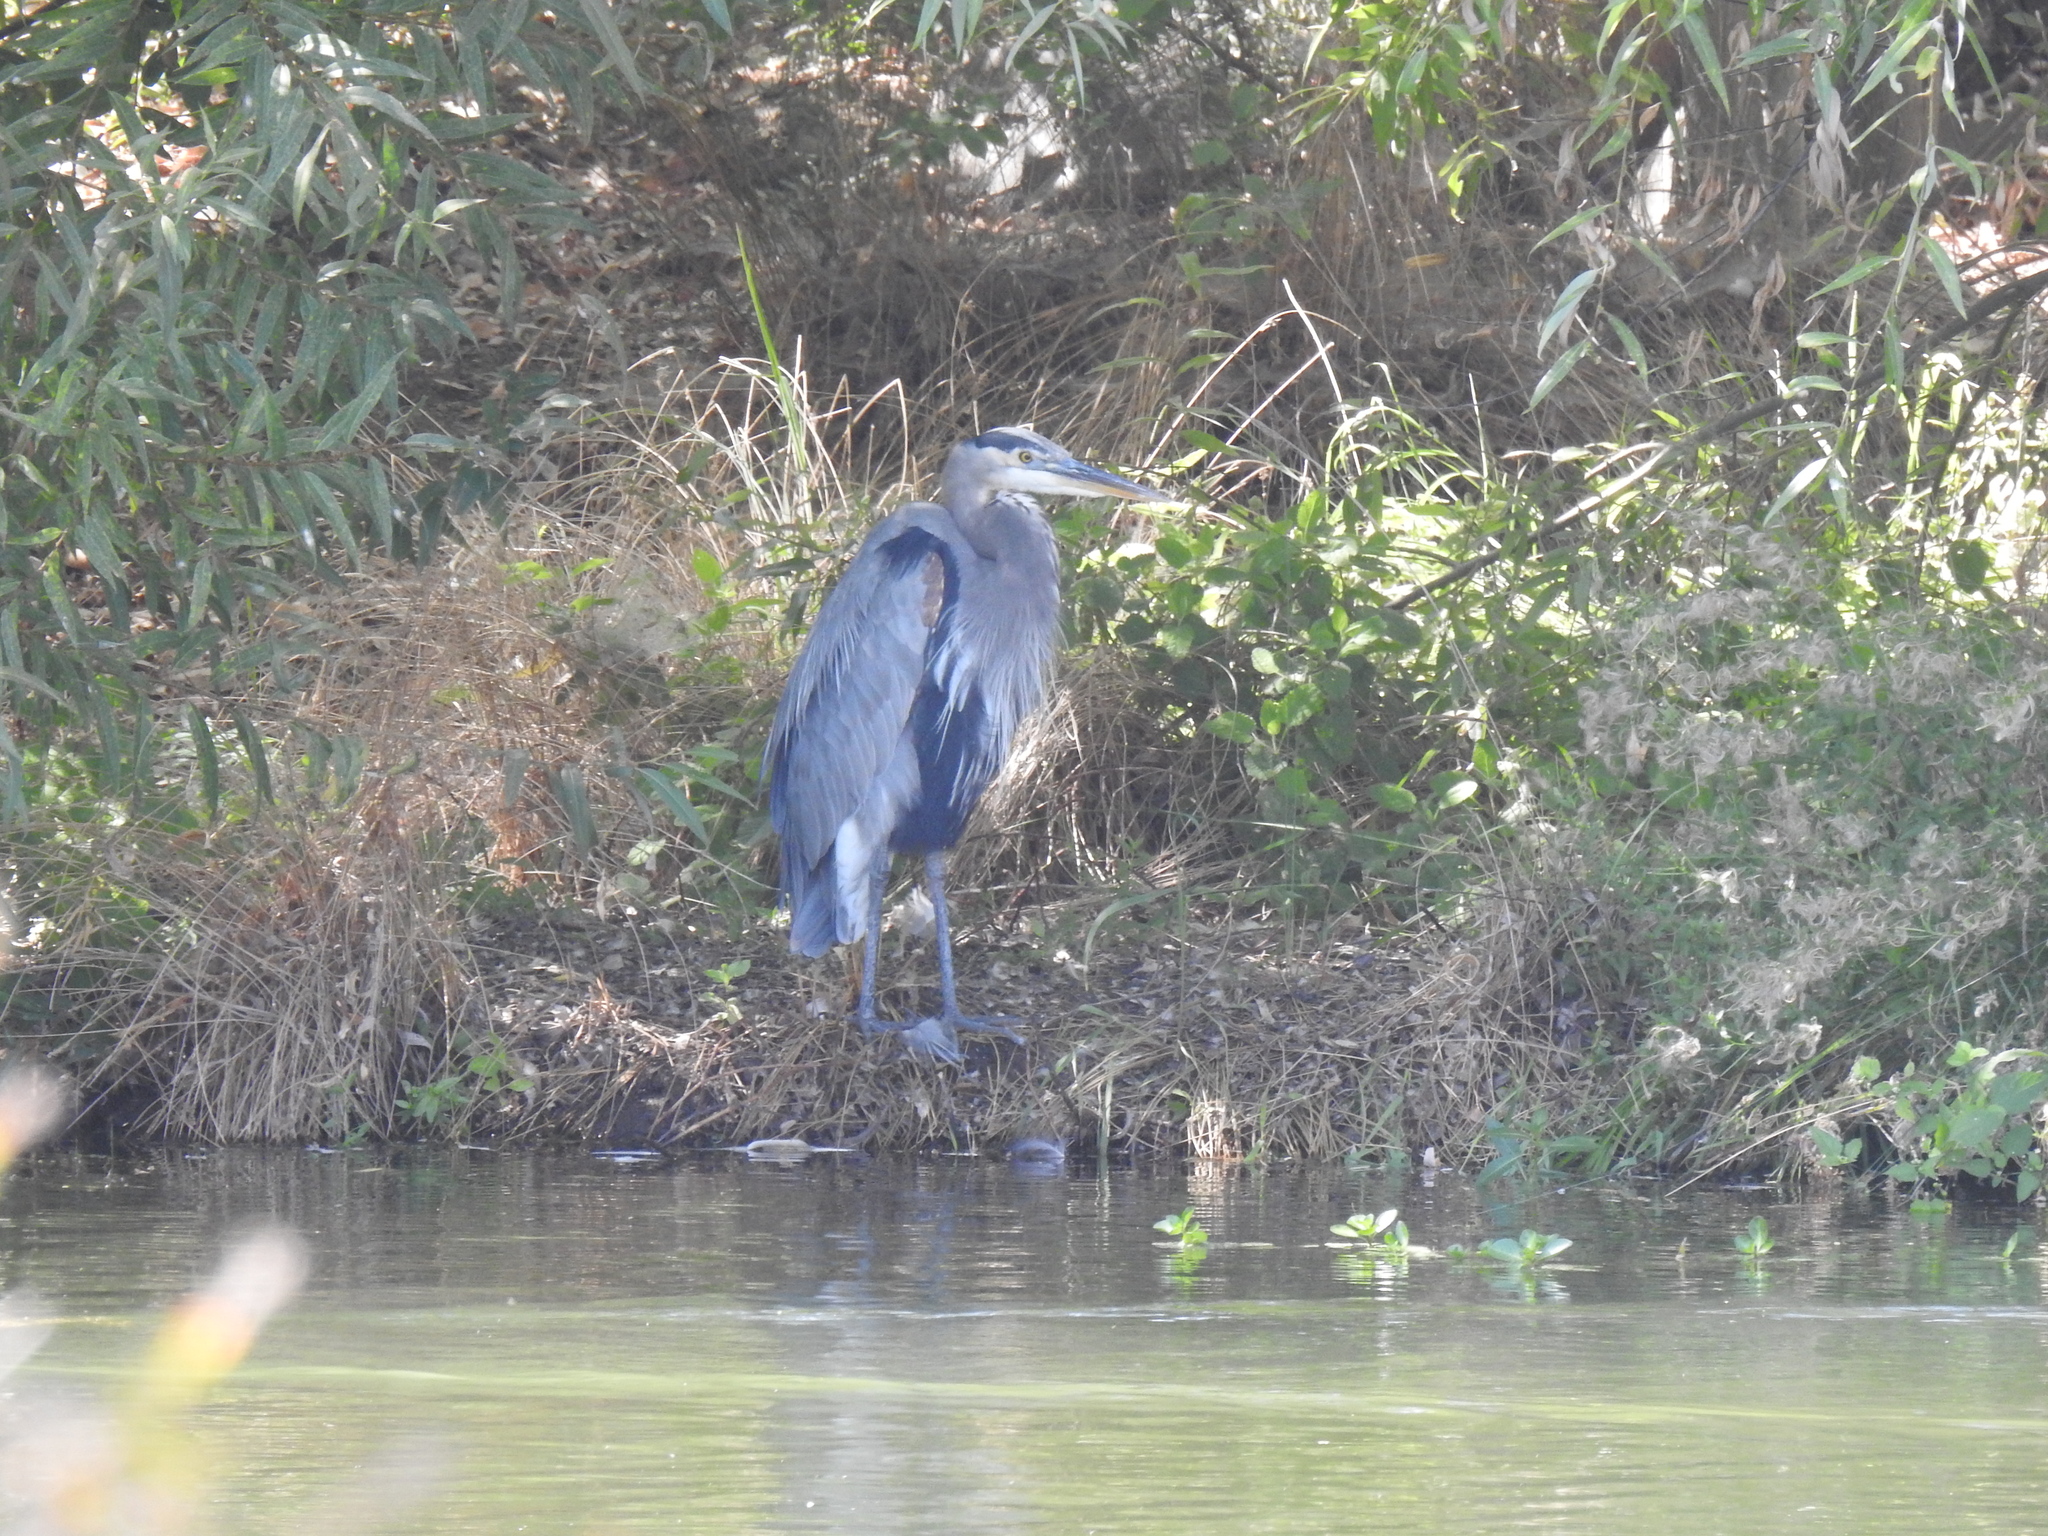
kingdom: Animalia
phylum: Chordata
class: Aves
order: Pelecaniformes
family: Ardeidae
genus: Ardea
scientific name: Ardea herodias
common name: Great blue heron
